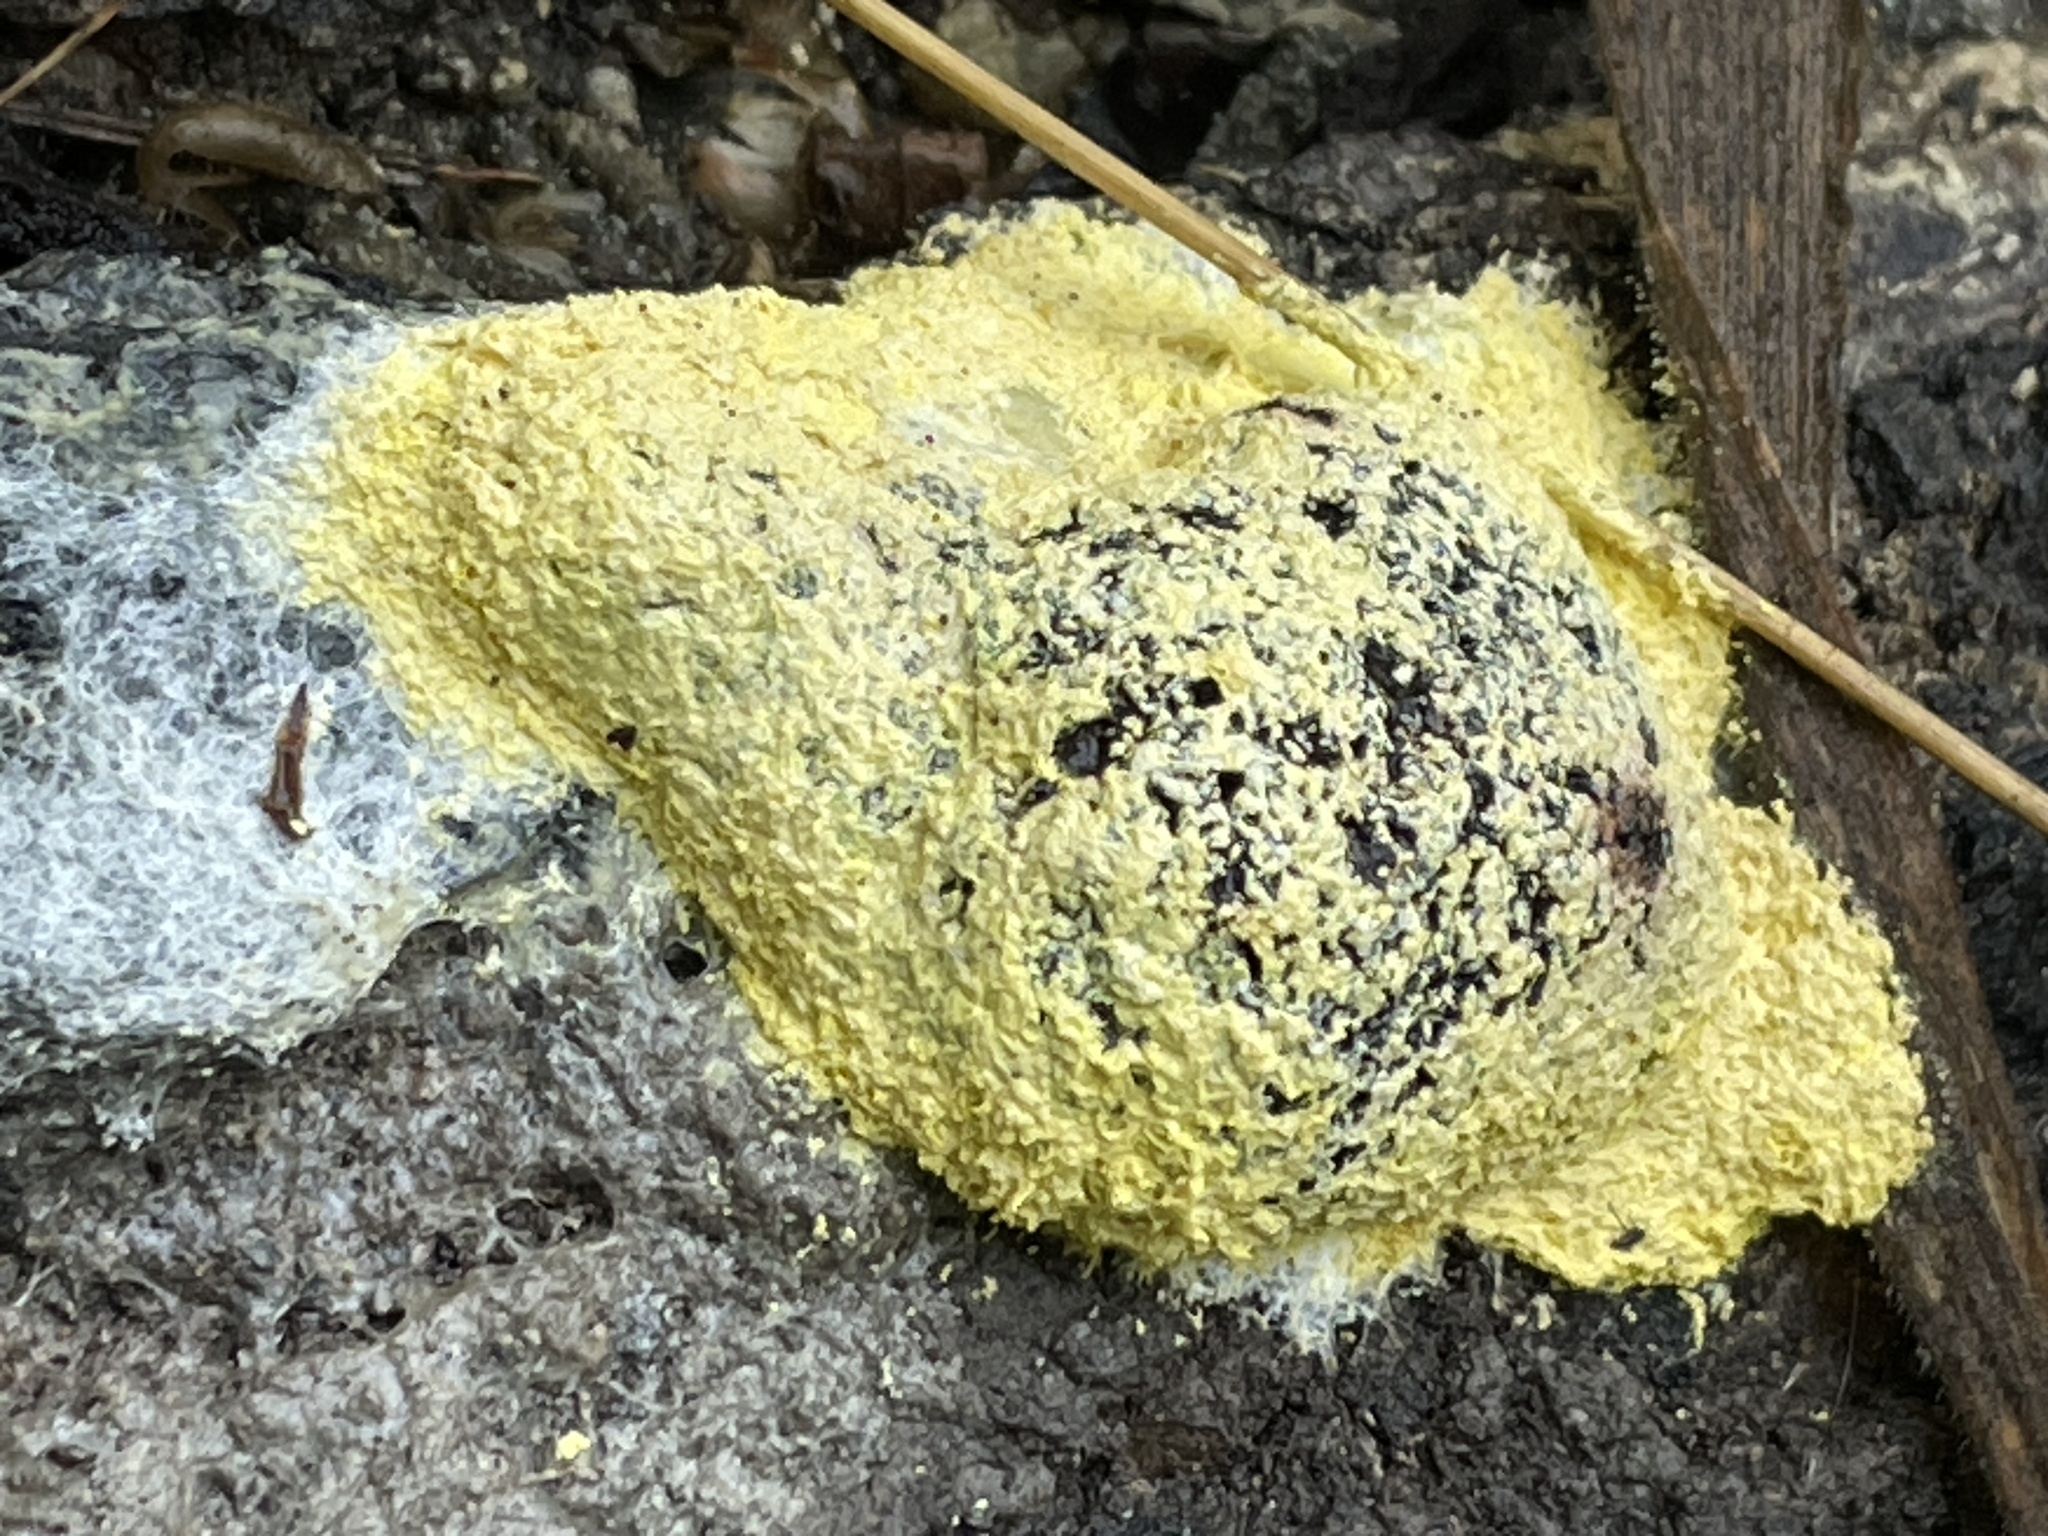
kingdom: Protozoa
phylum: Mycetozoa
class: Myxomycetes
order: Physarales
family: Physaraceae
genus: Fuligo
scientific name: Fuligo septica
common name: Dog vomit slime mold
